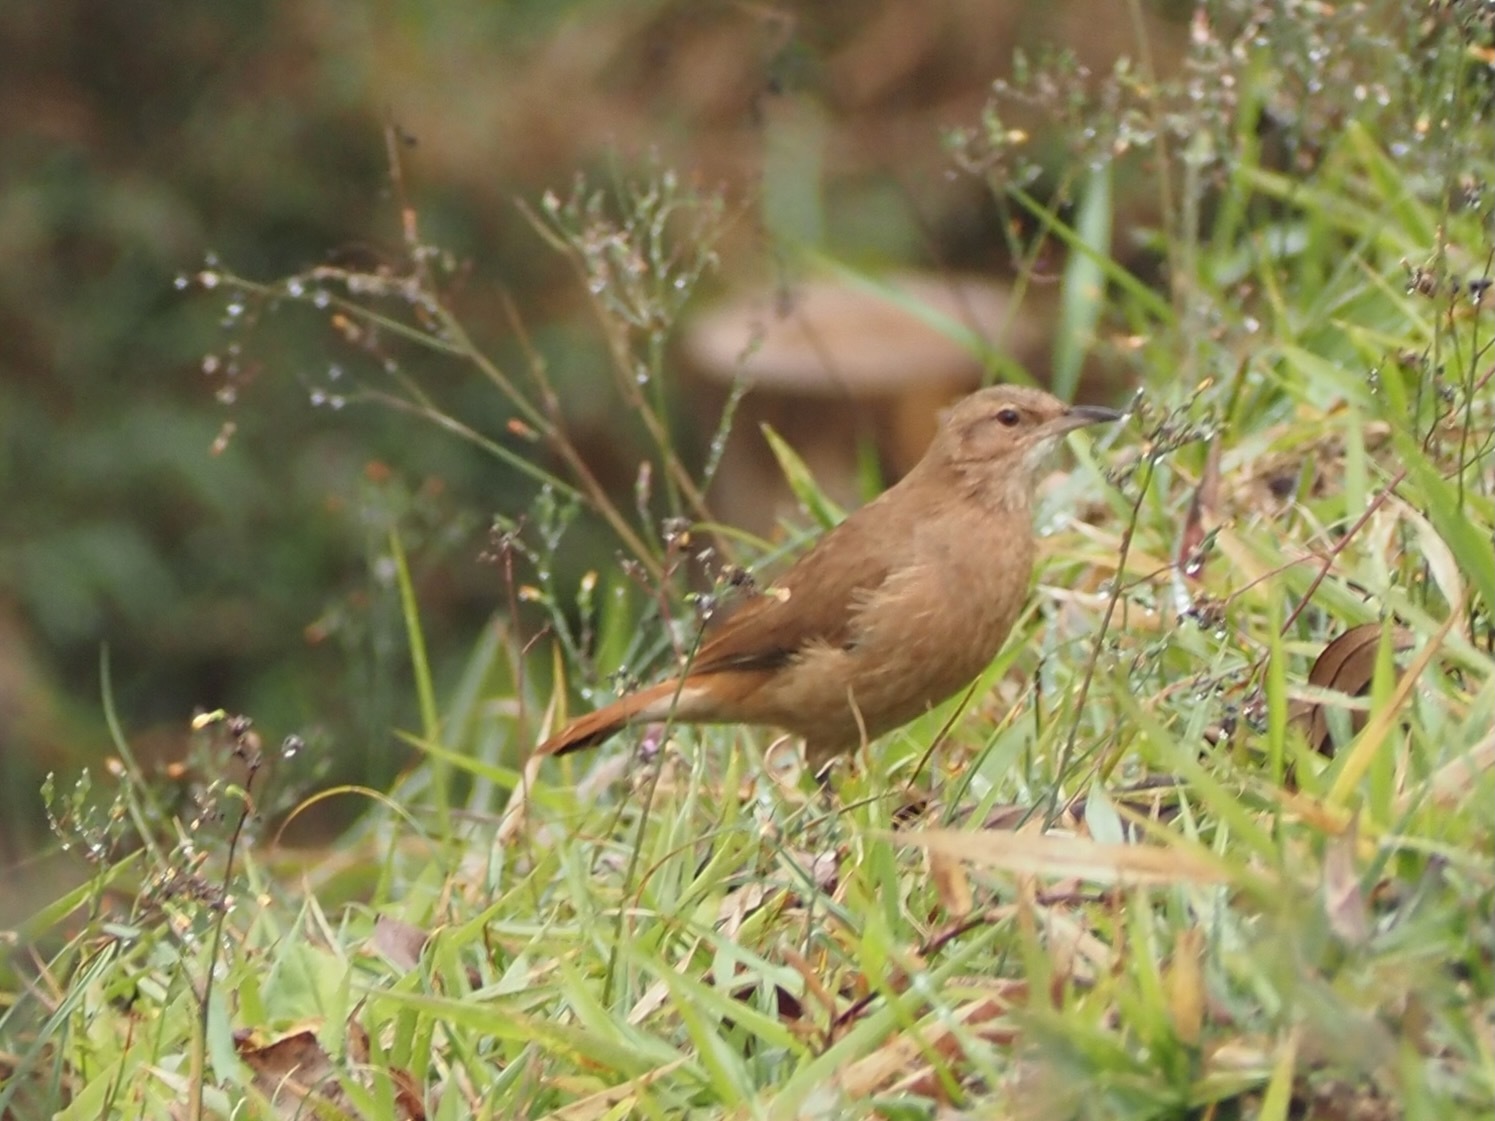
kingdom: Animalia
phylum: Chordata
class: Aves
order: Passeriformes
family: Furnariidae
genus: Furnarius
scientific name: Furnarius rufus
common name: Rufous hornero
